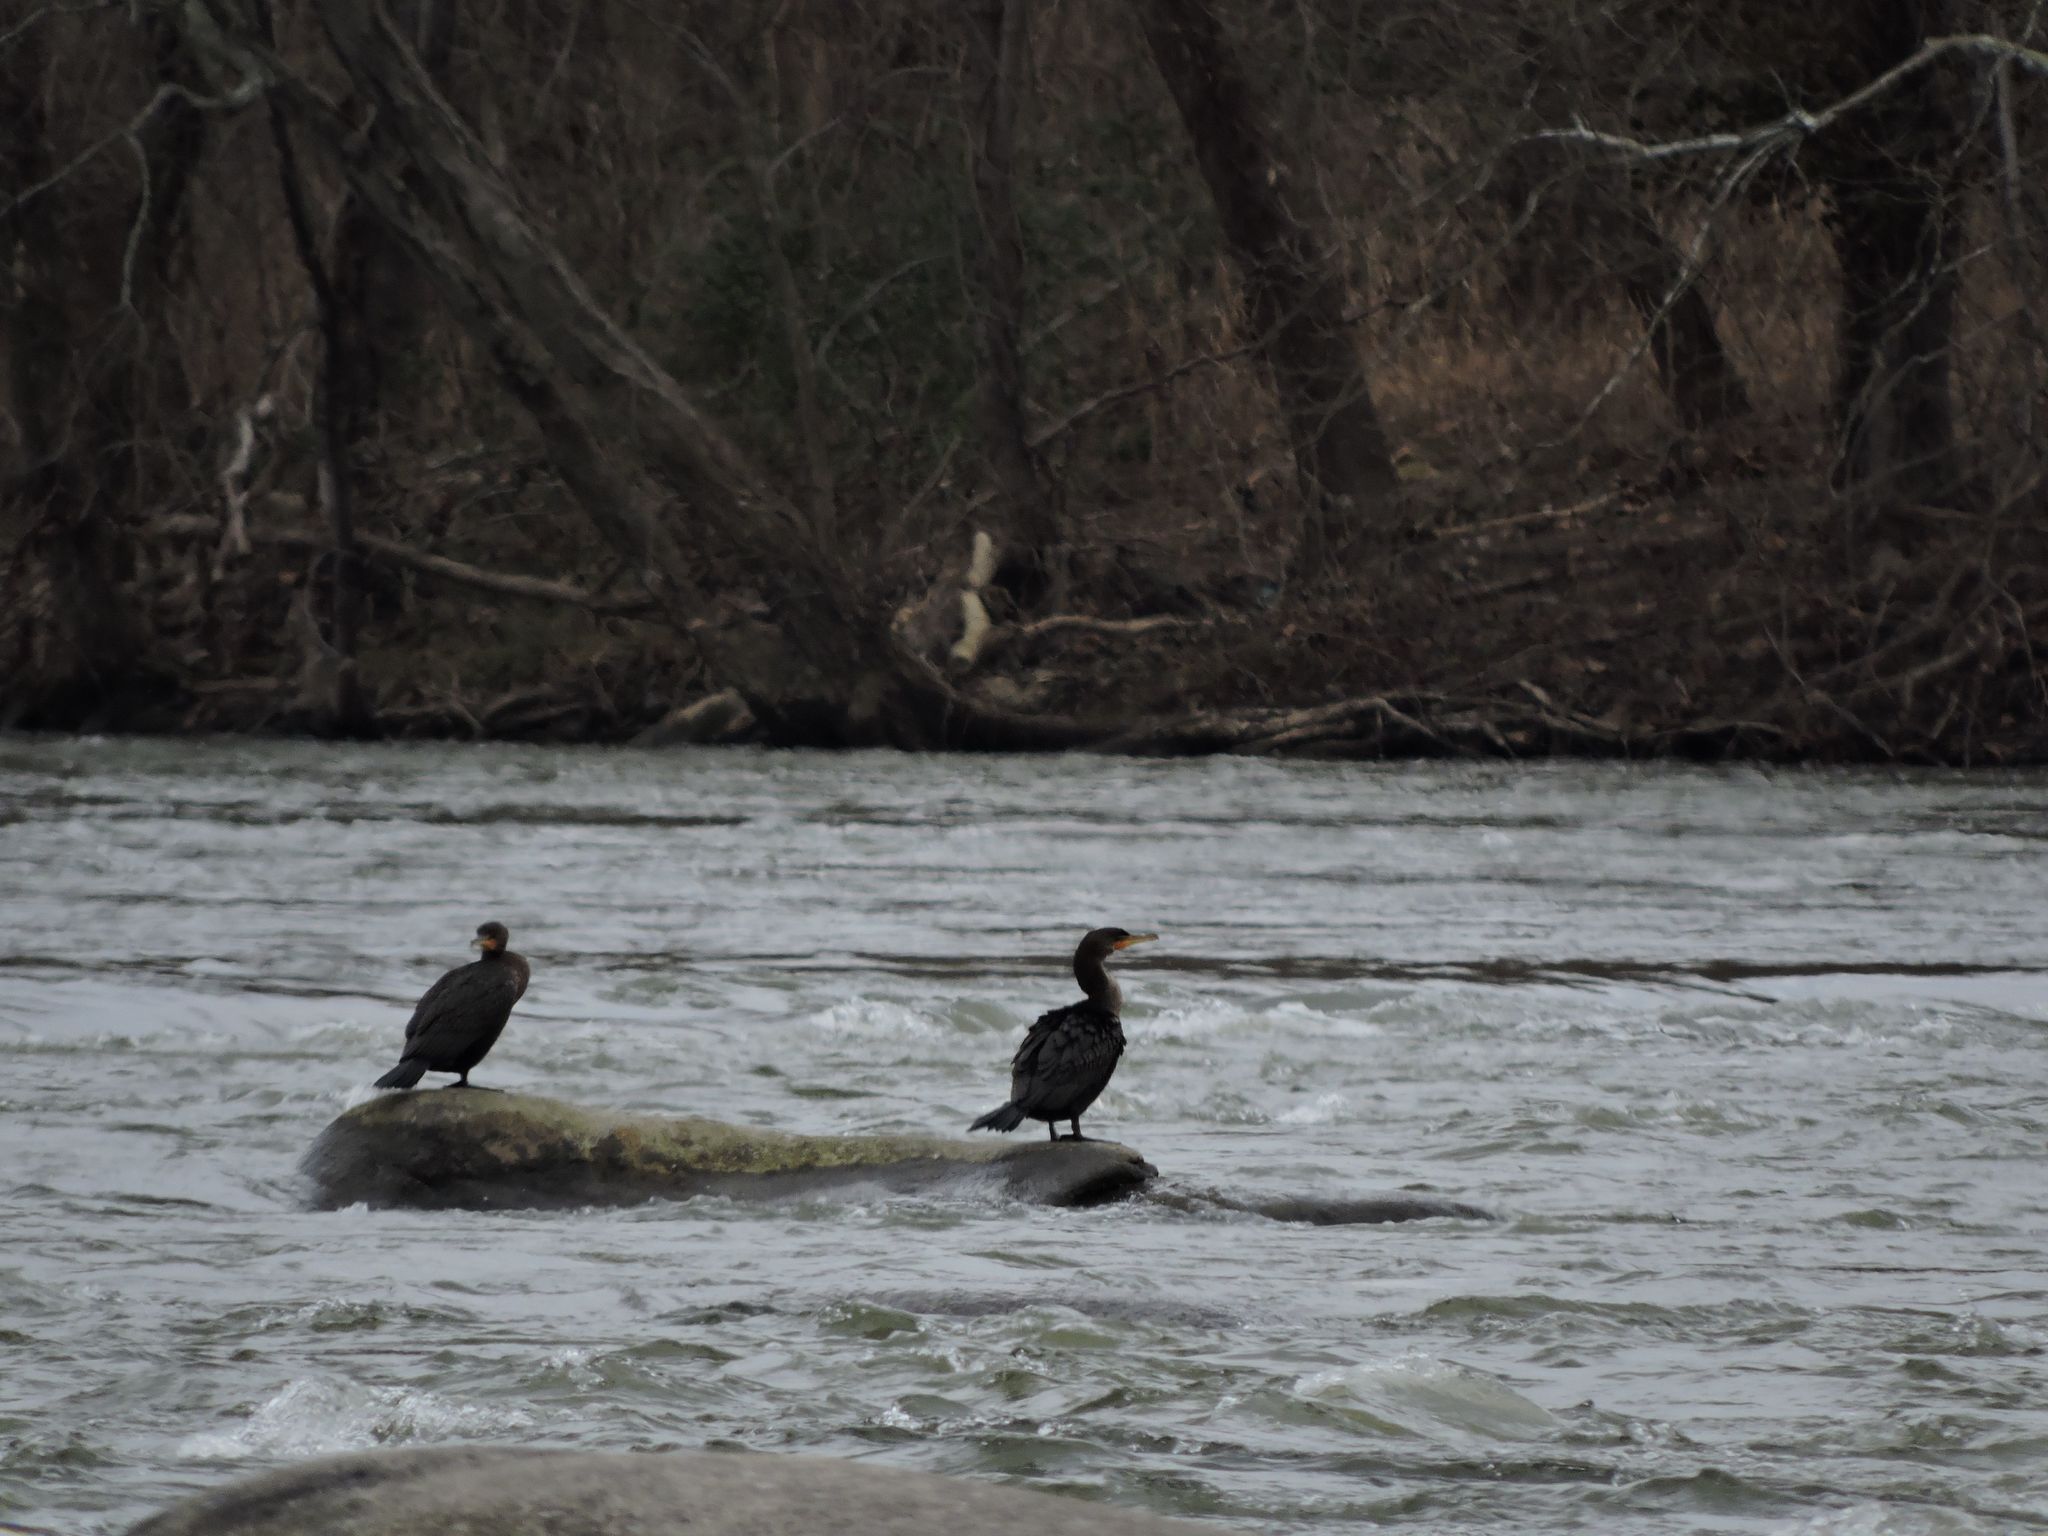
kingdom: Animalia
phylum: Chordata
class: Aves
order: Suliformes
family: Phalacrocoracidae
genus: Phalacrocorax
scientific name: Phalacrocorax auritus
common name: Double-crested cormorant
